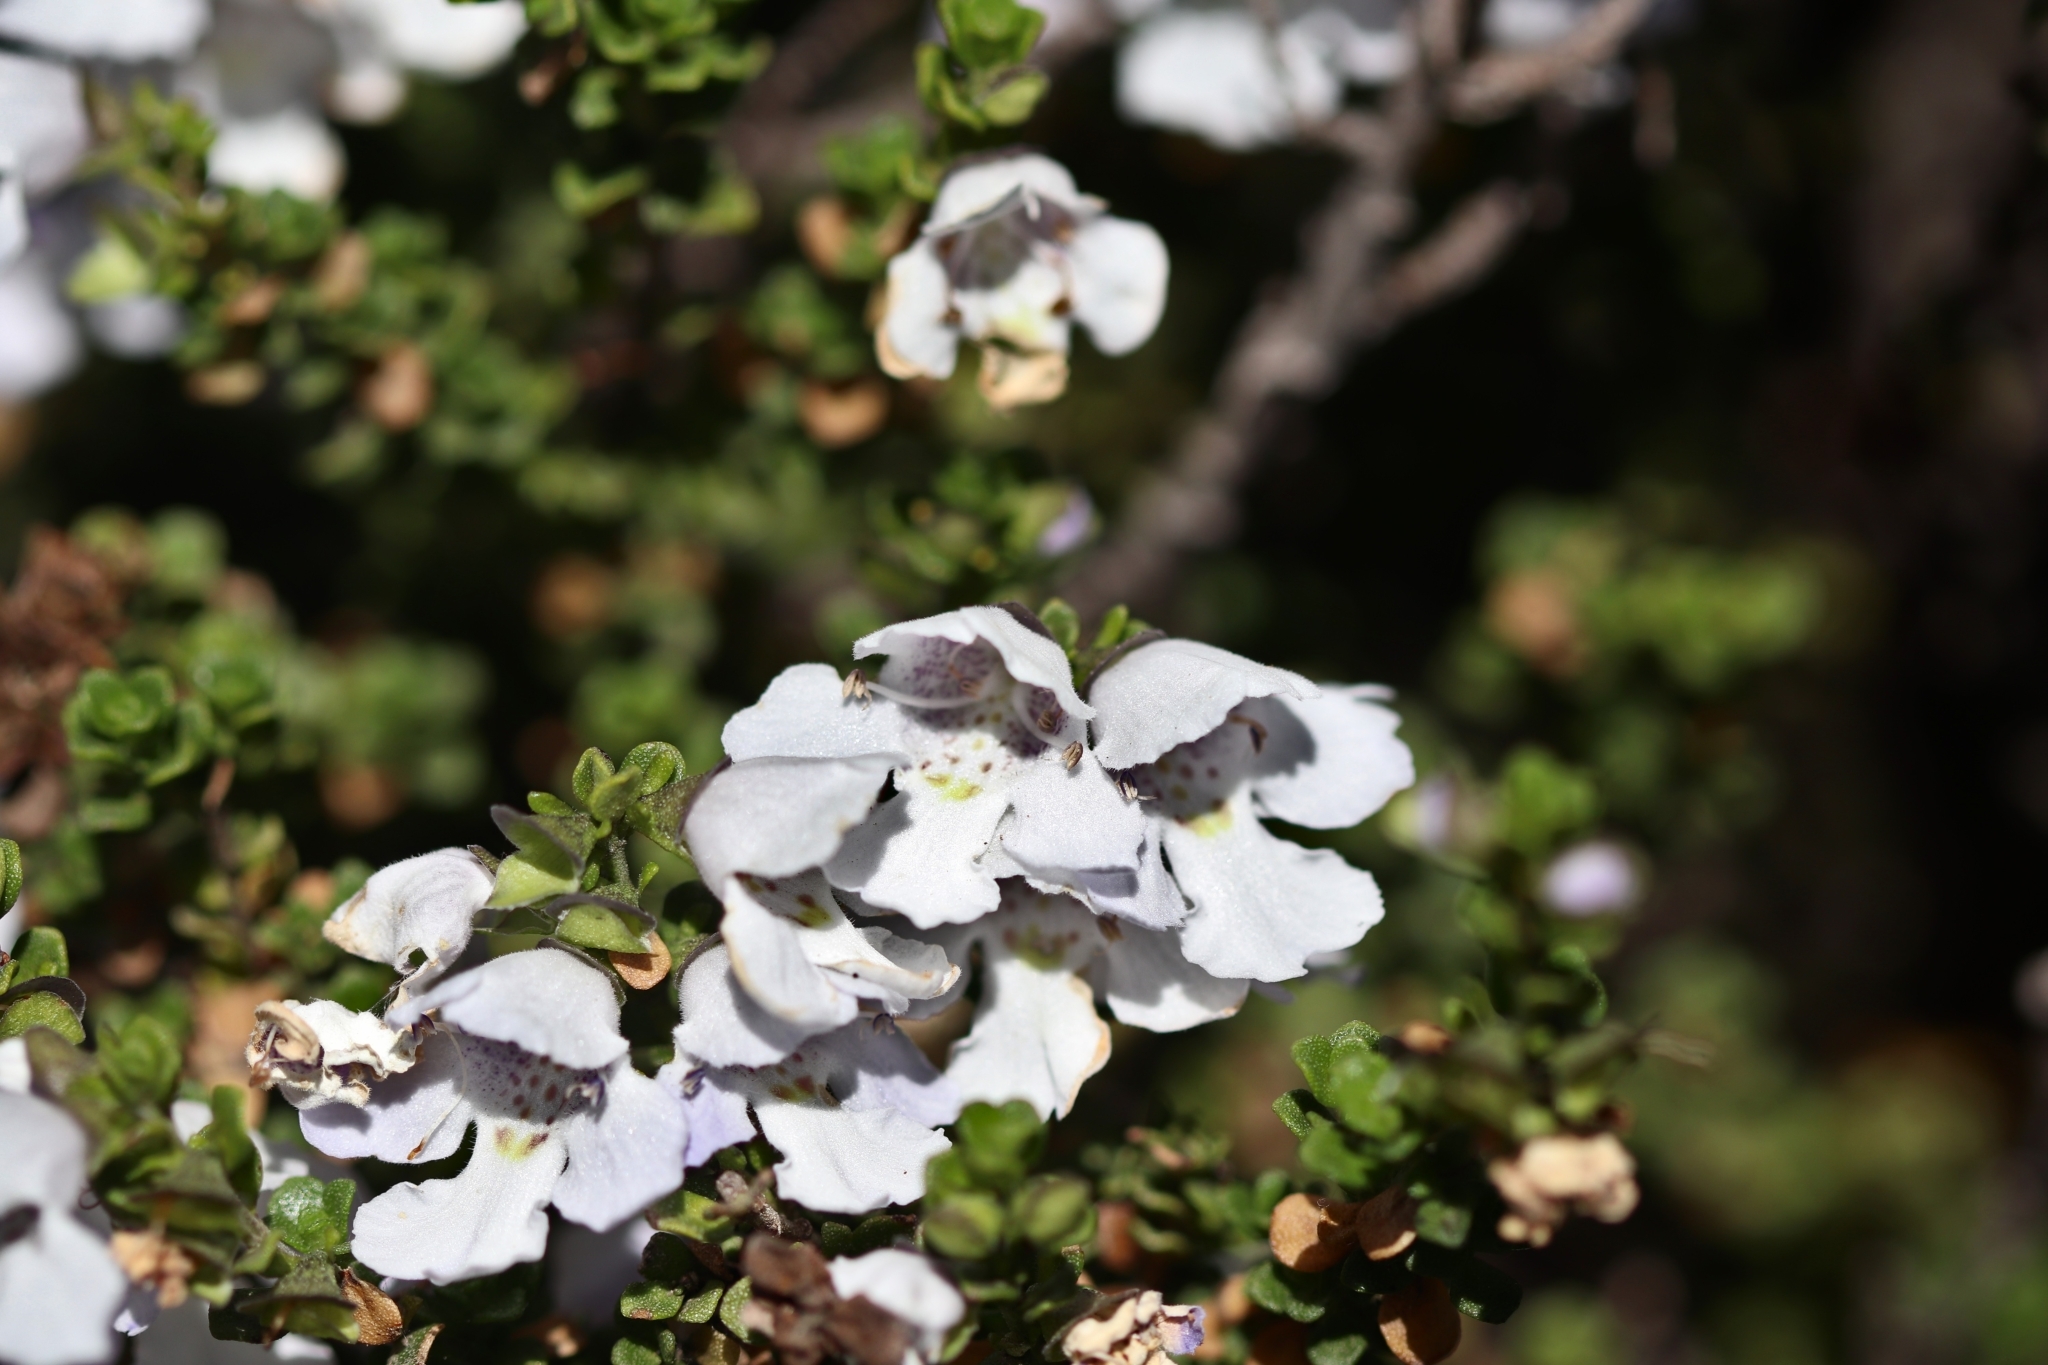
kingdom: Plantae
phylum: Tracheophyta
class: Magnoliopsida
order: Lamiales
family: Lamiaceae
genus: Prostanthera
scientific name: Prostanthera cuneata
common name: Alpine mintbush
